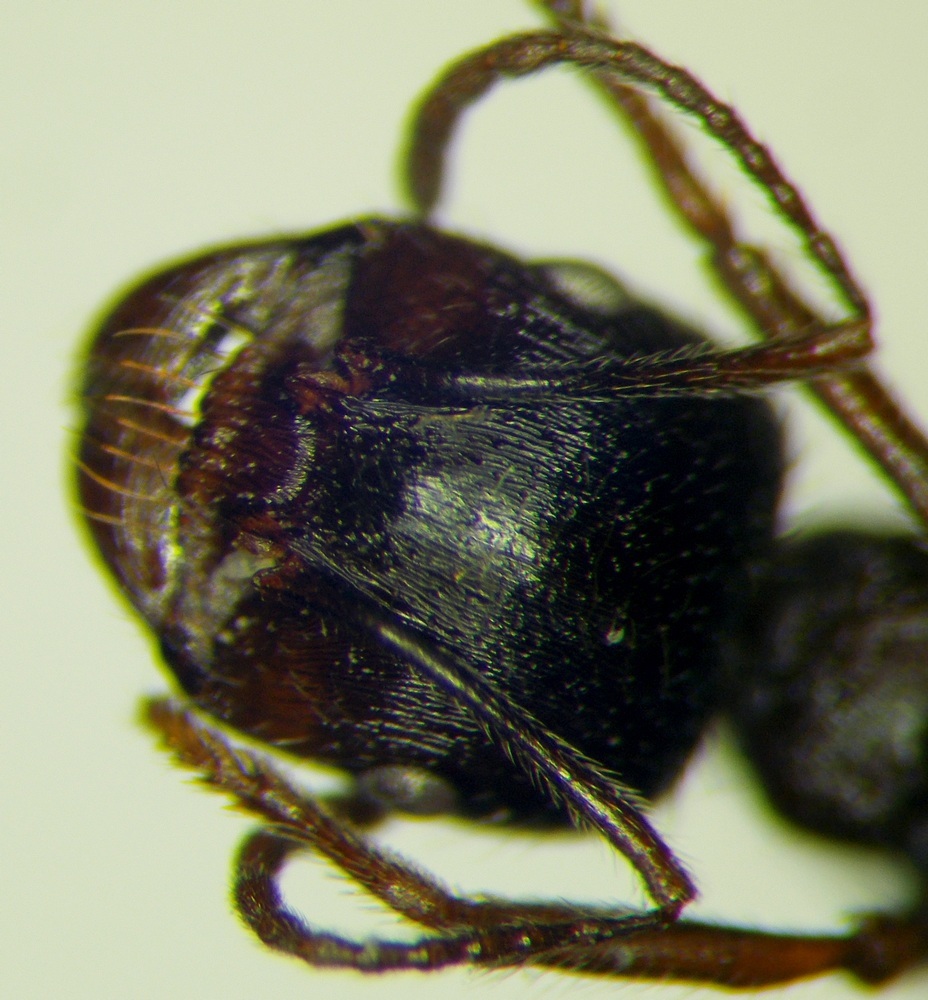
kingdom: Animalia
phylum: Arthropoda
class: Insecta
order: Hymenoptera
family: Formicidae
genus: Messor
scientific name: Messor structor
